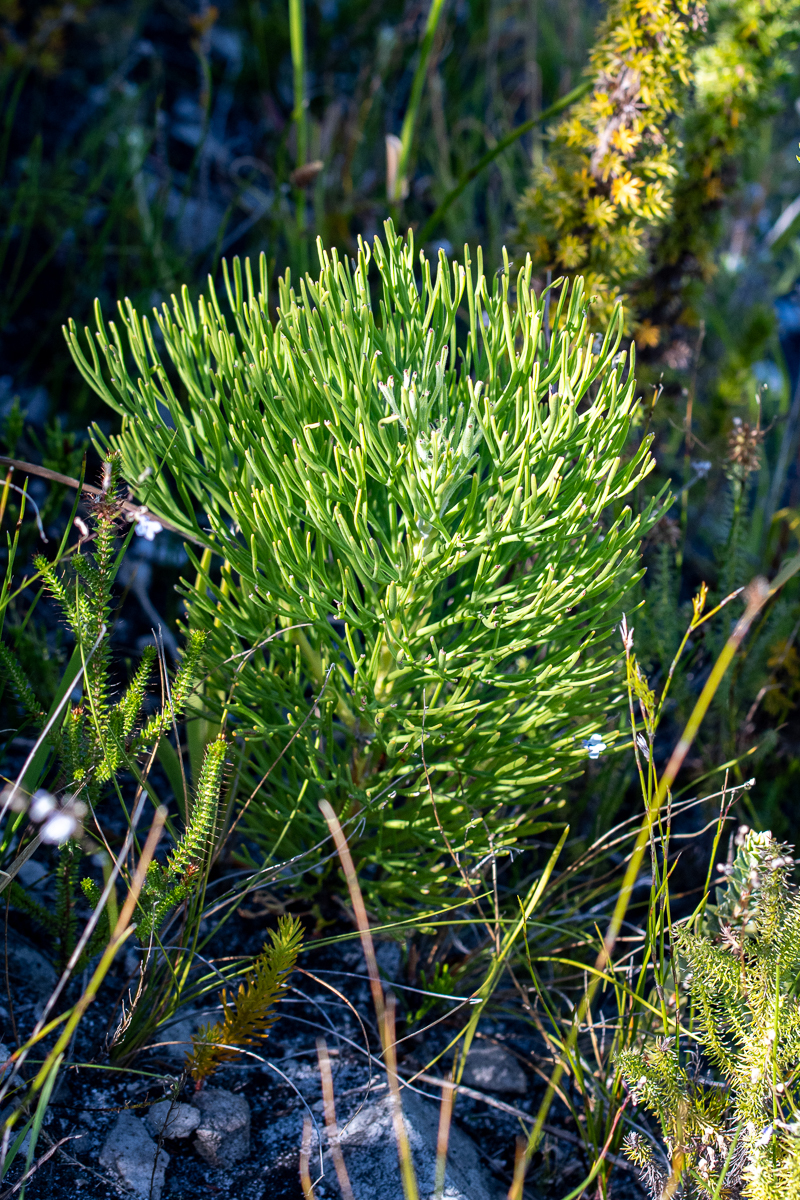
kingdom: Plantae
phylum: Tracheophyta
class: Magnoliopsida
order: Proteales
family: Proteaceae
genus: Paranomus
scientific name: Paranomus sceptrum-gustavianus
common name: King gustav's sceptre
